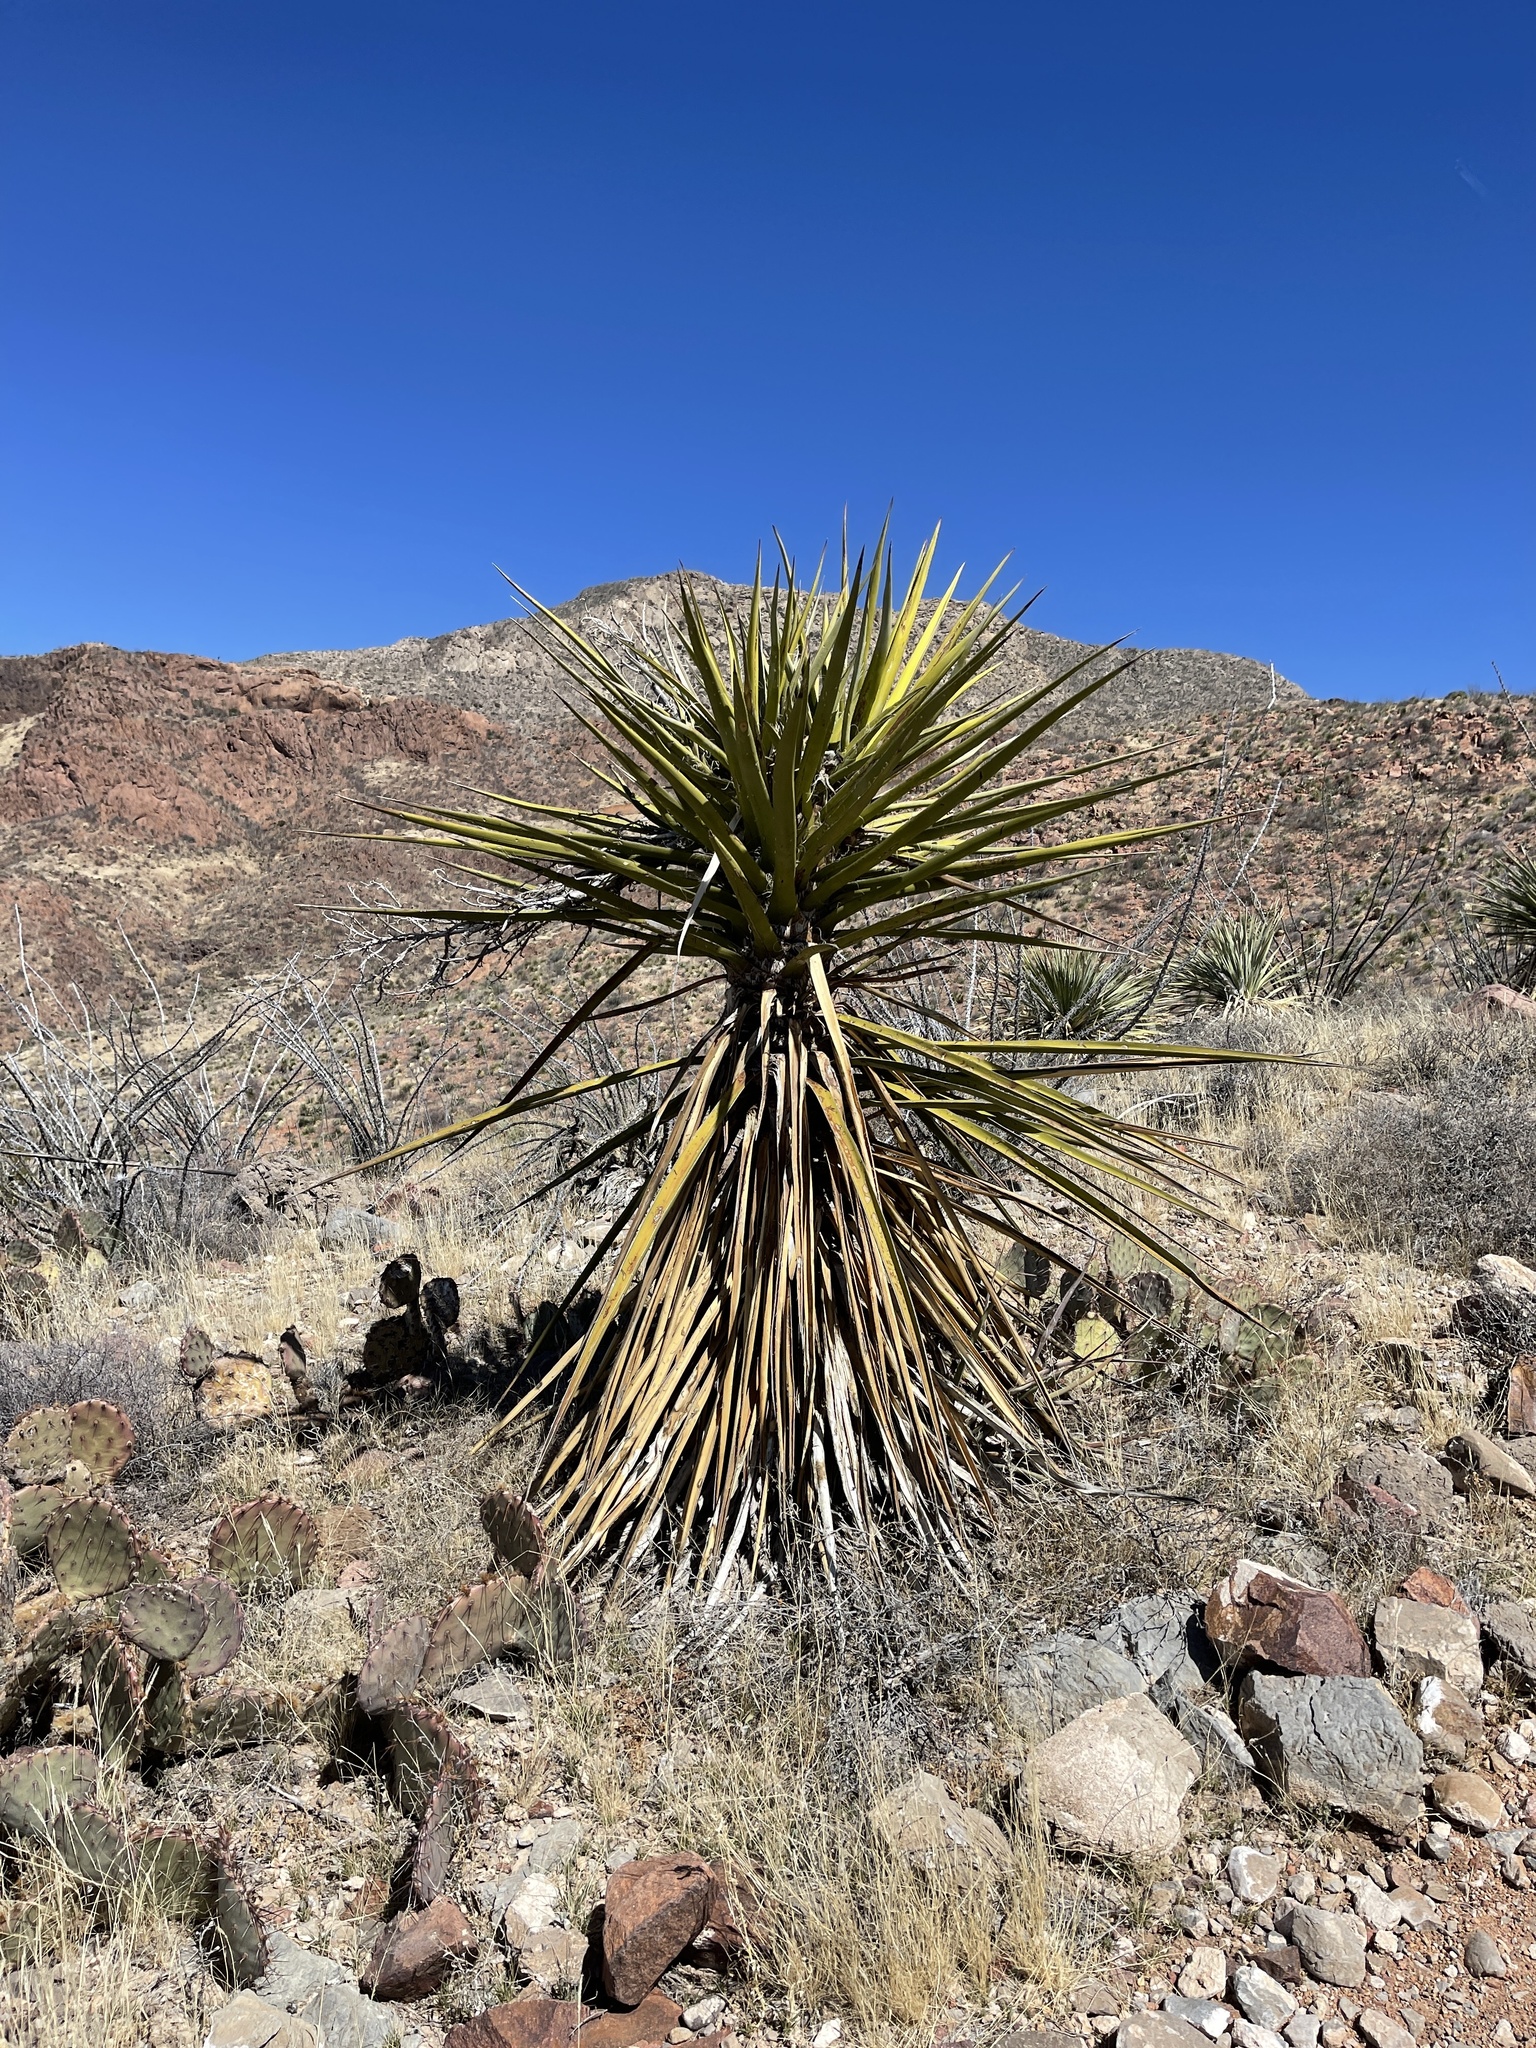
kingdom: Plantae
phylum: Tracheophyta
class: Liliopsida
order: Asparagales
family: Asparagaceae
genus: Yucca
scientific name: Yucca treculiana
